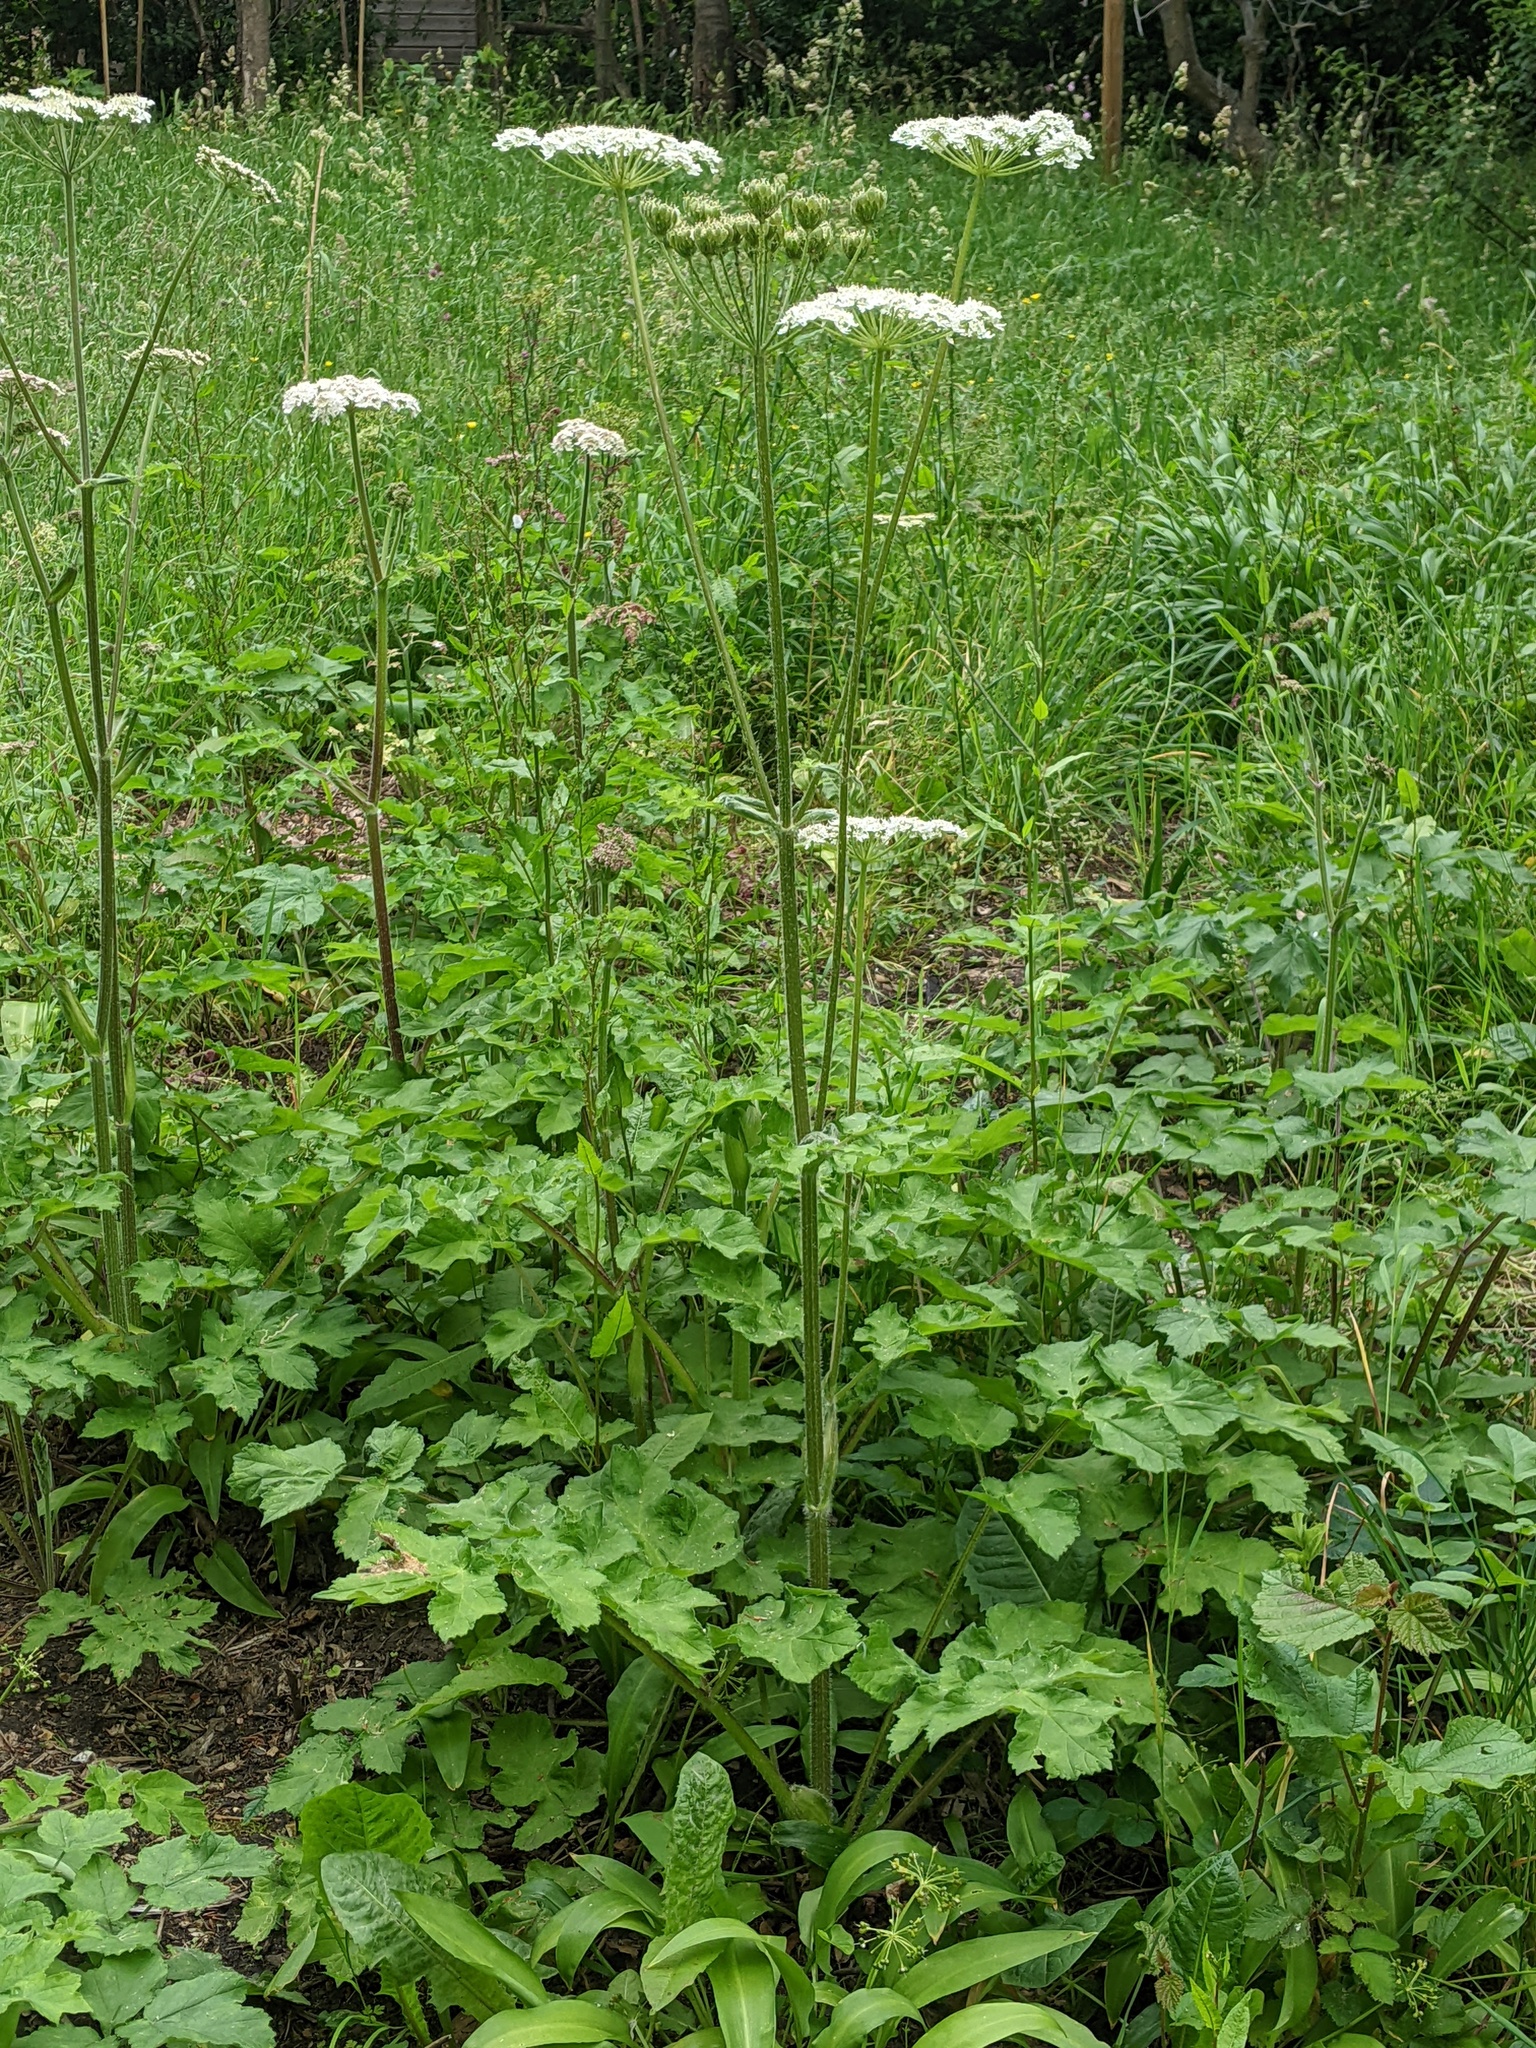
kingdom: Plantae
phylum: Tracheophyta
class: Magnoliopsida
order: Apiales
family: Apiaceae
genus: Heracleum
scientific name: Heracleum sphondylium
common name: Hogweed
